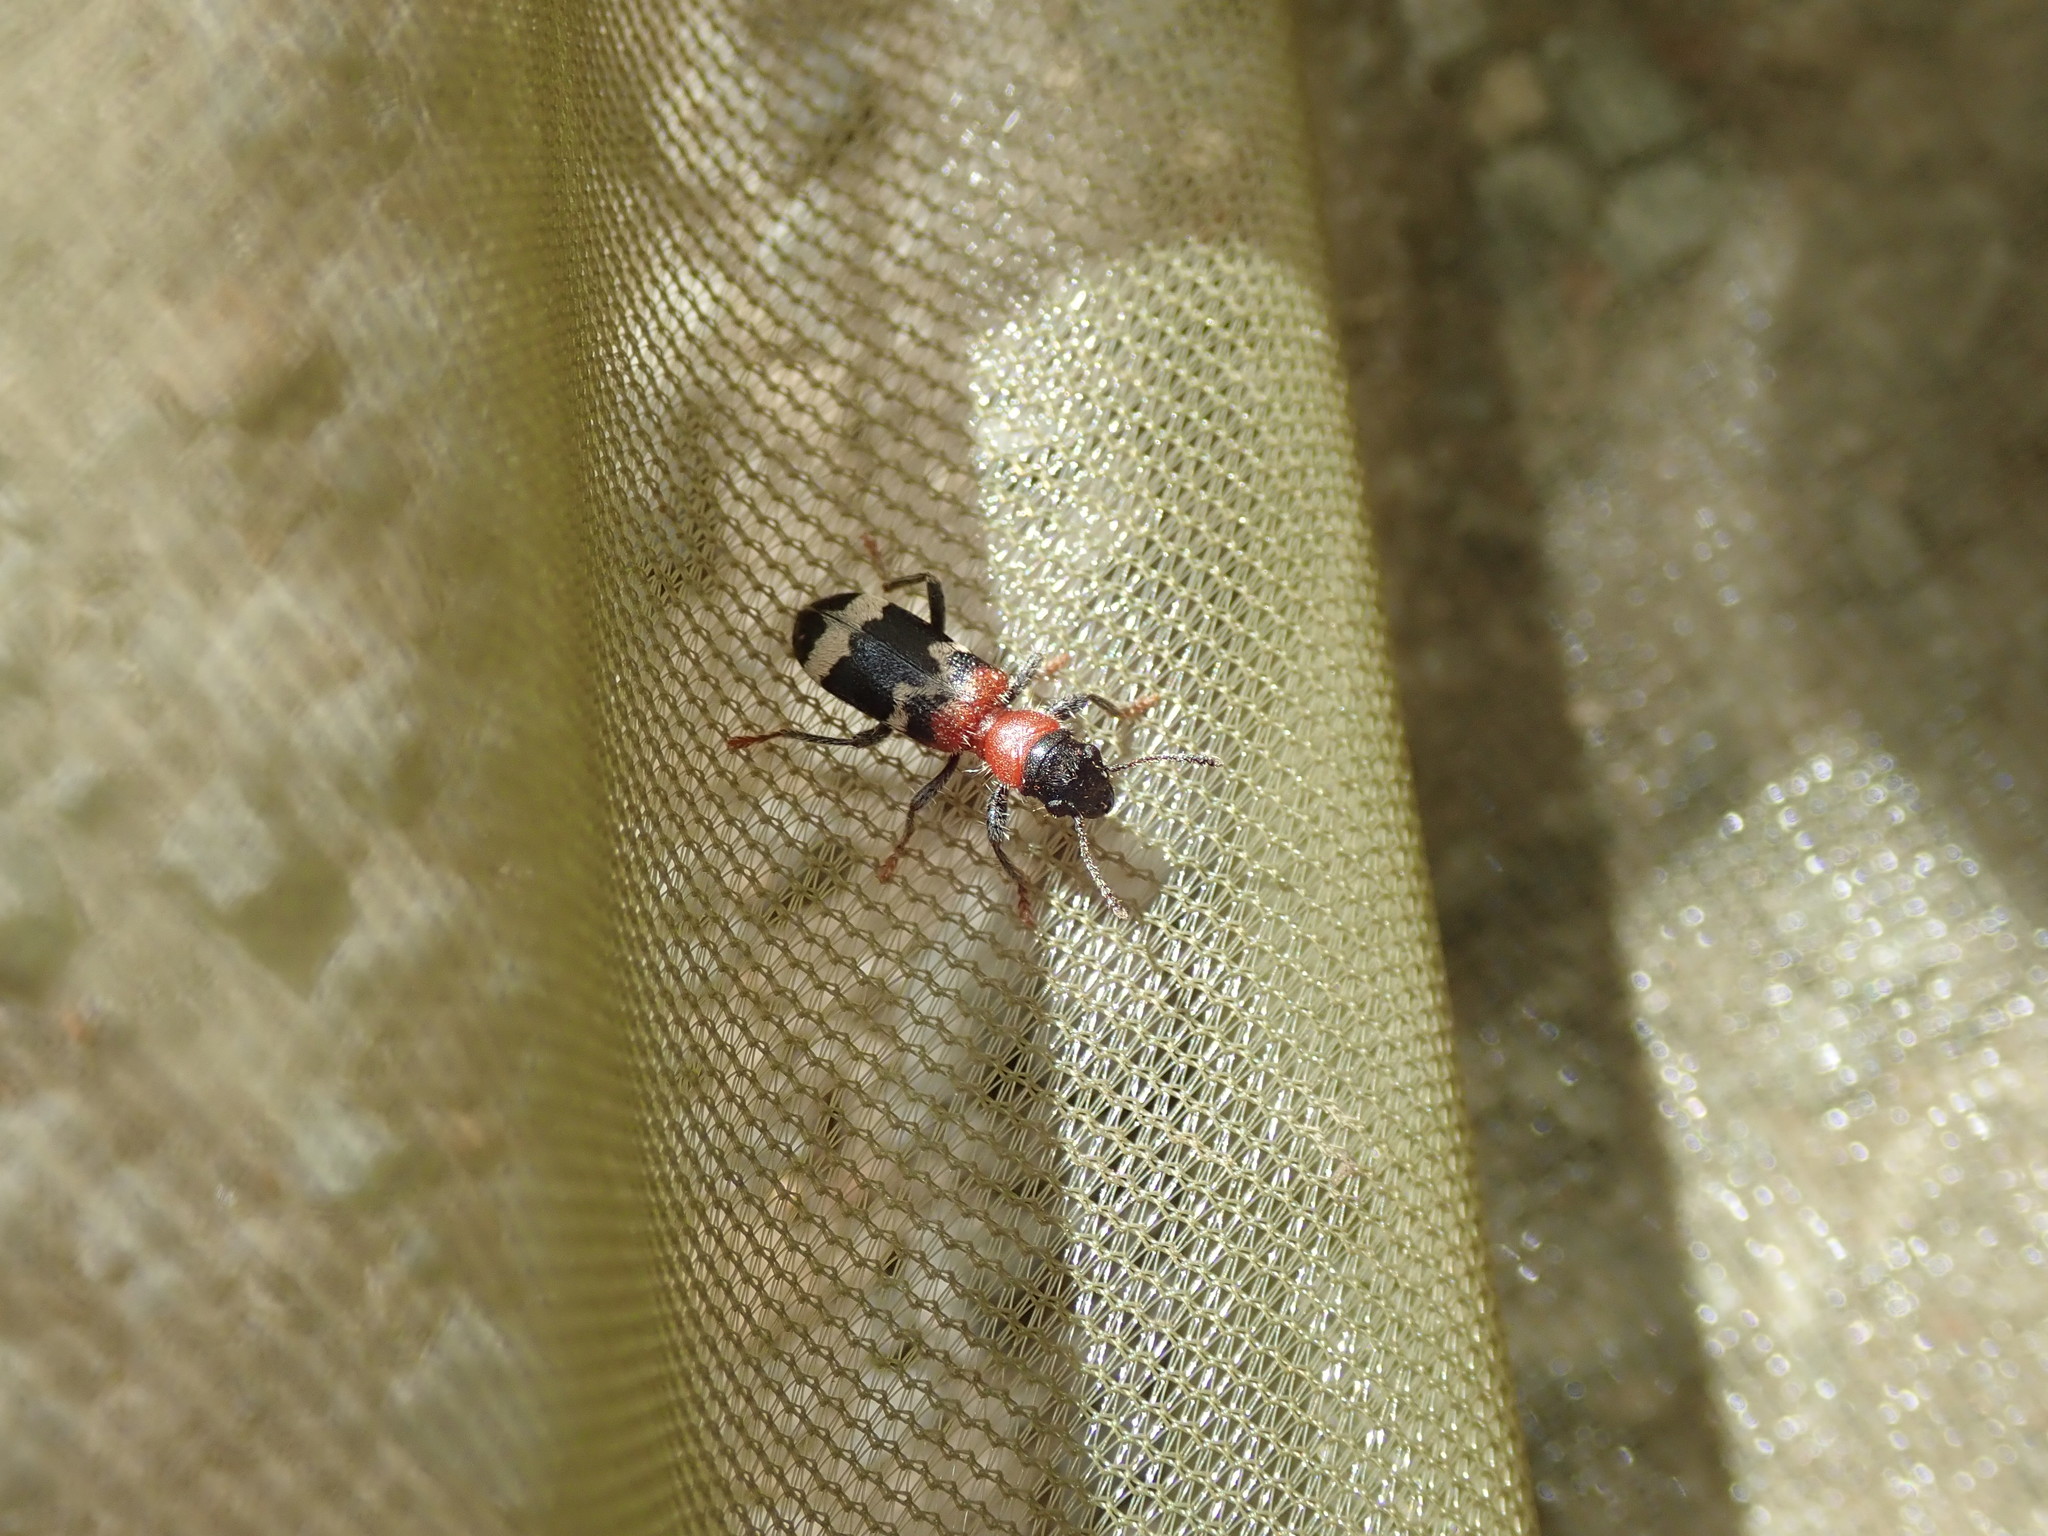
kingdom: Animalia
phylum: Arthropoda
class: Insecta
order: Coleoptera
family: Cleridae
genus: Thanasimus
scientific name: Thanasimus formicarius
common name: Ant beetle
